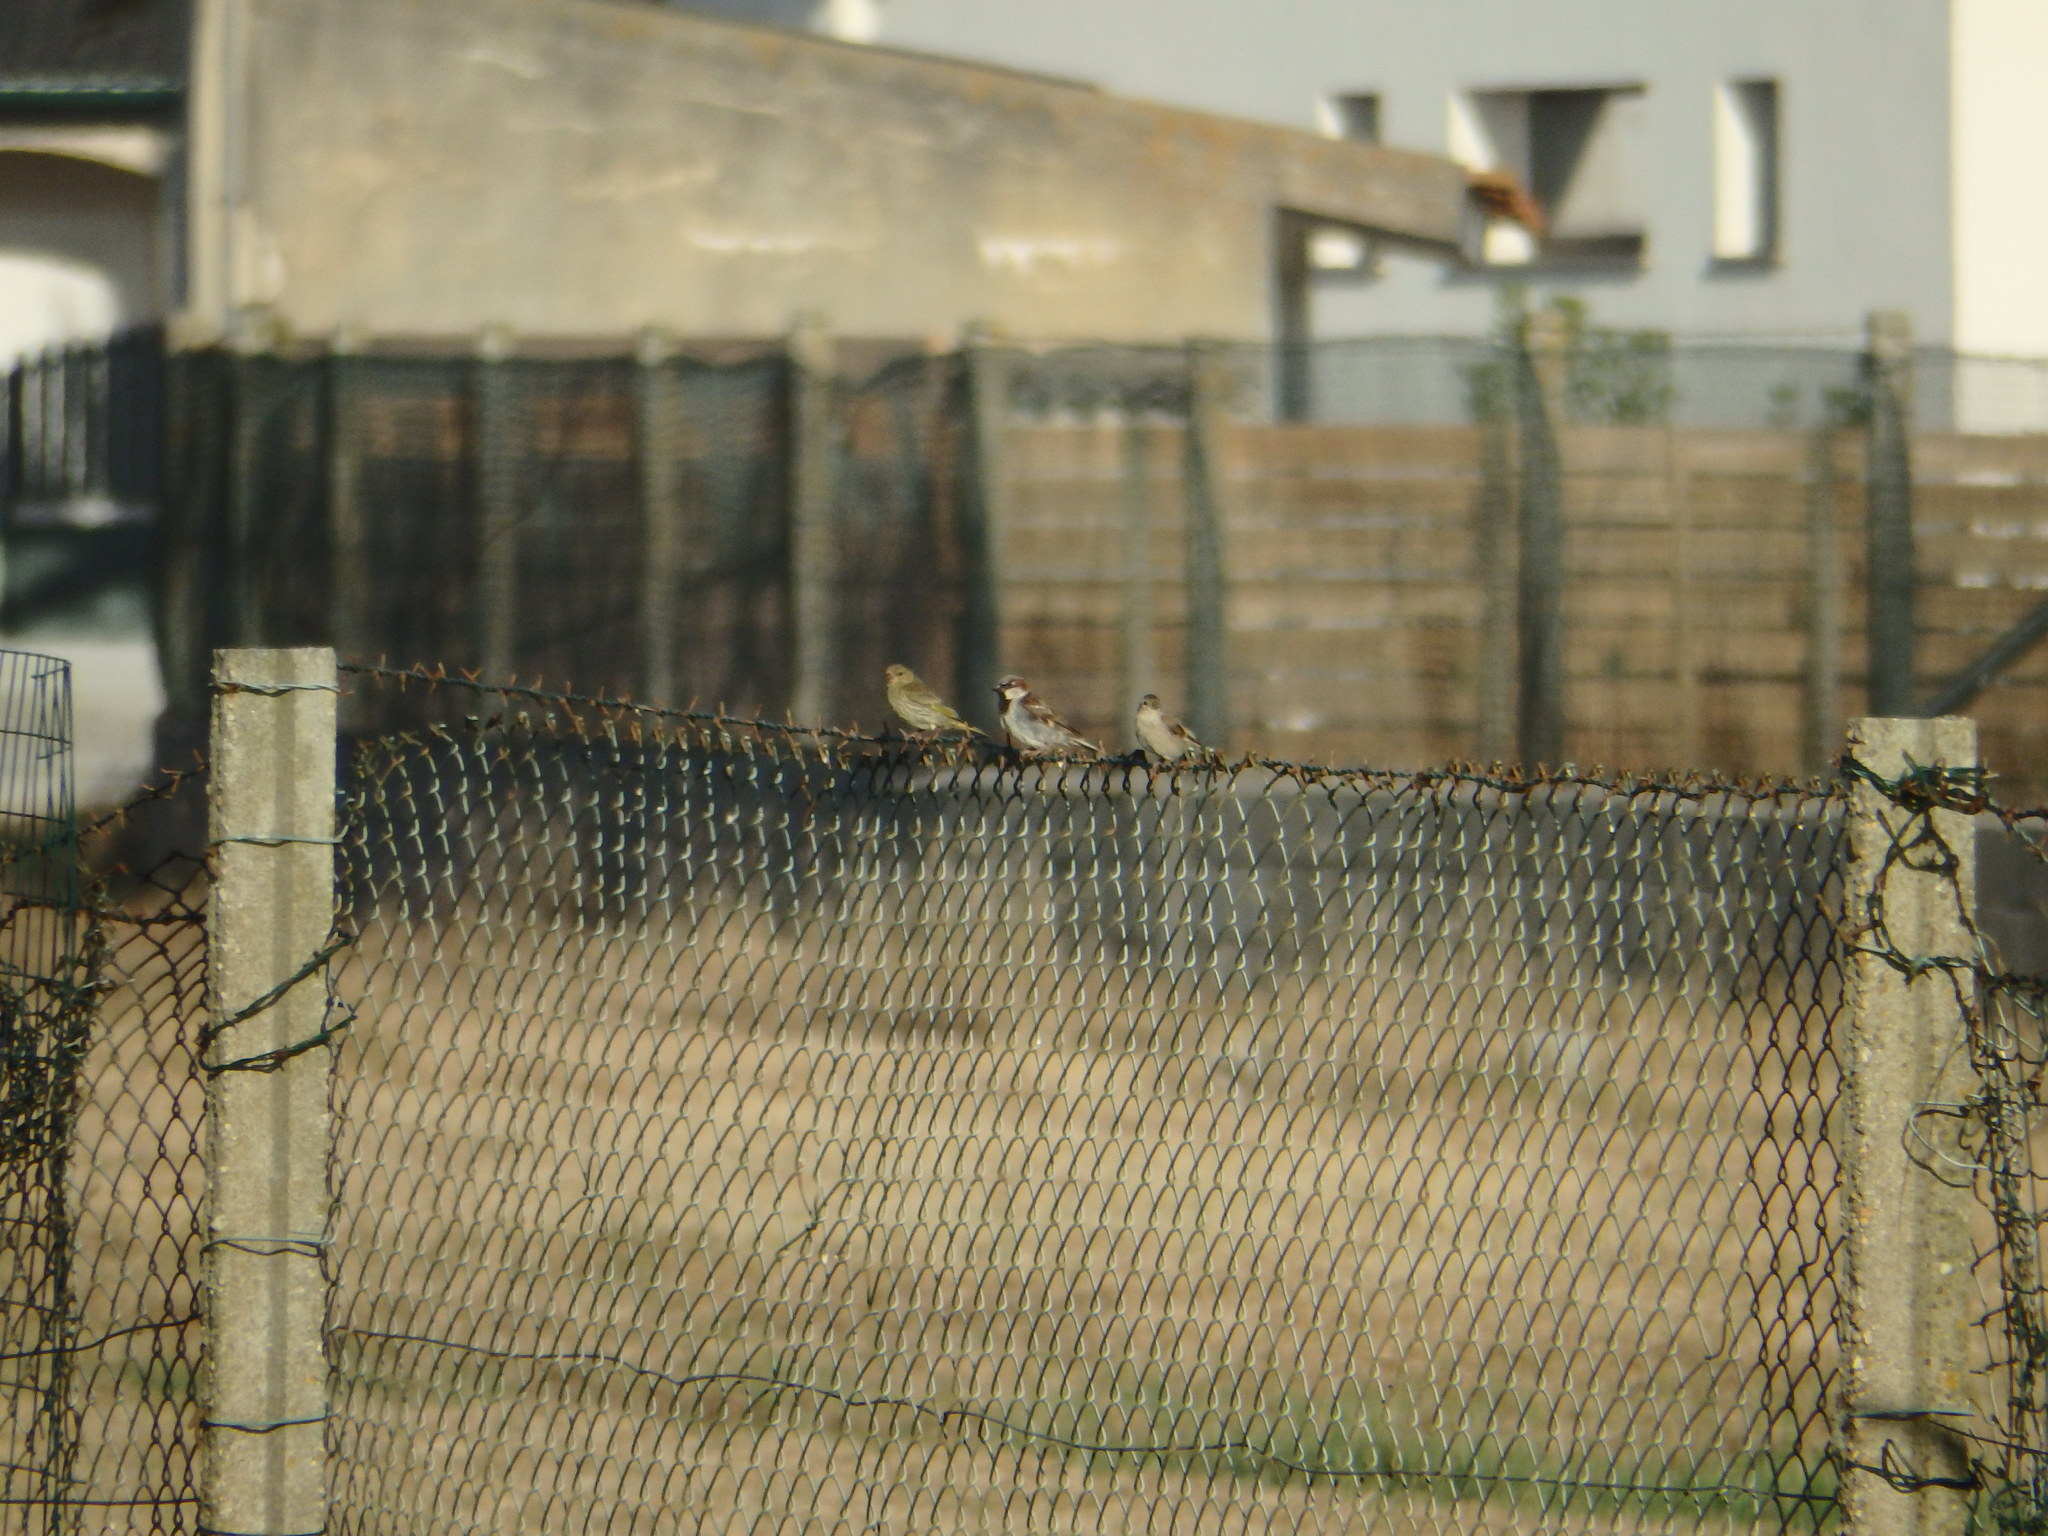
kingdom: Animalia
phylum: Chordata
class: Aves
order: Passeriformes
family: Passeridae
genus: Passer
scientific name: Passer domesticus
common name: House sparrow
